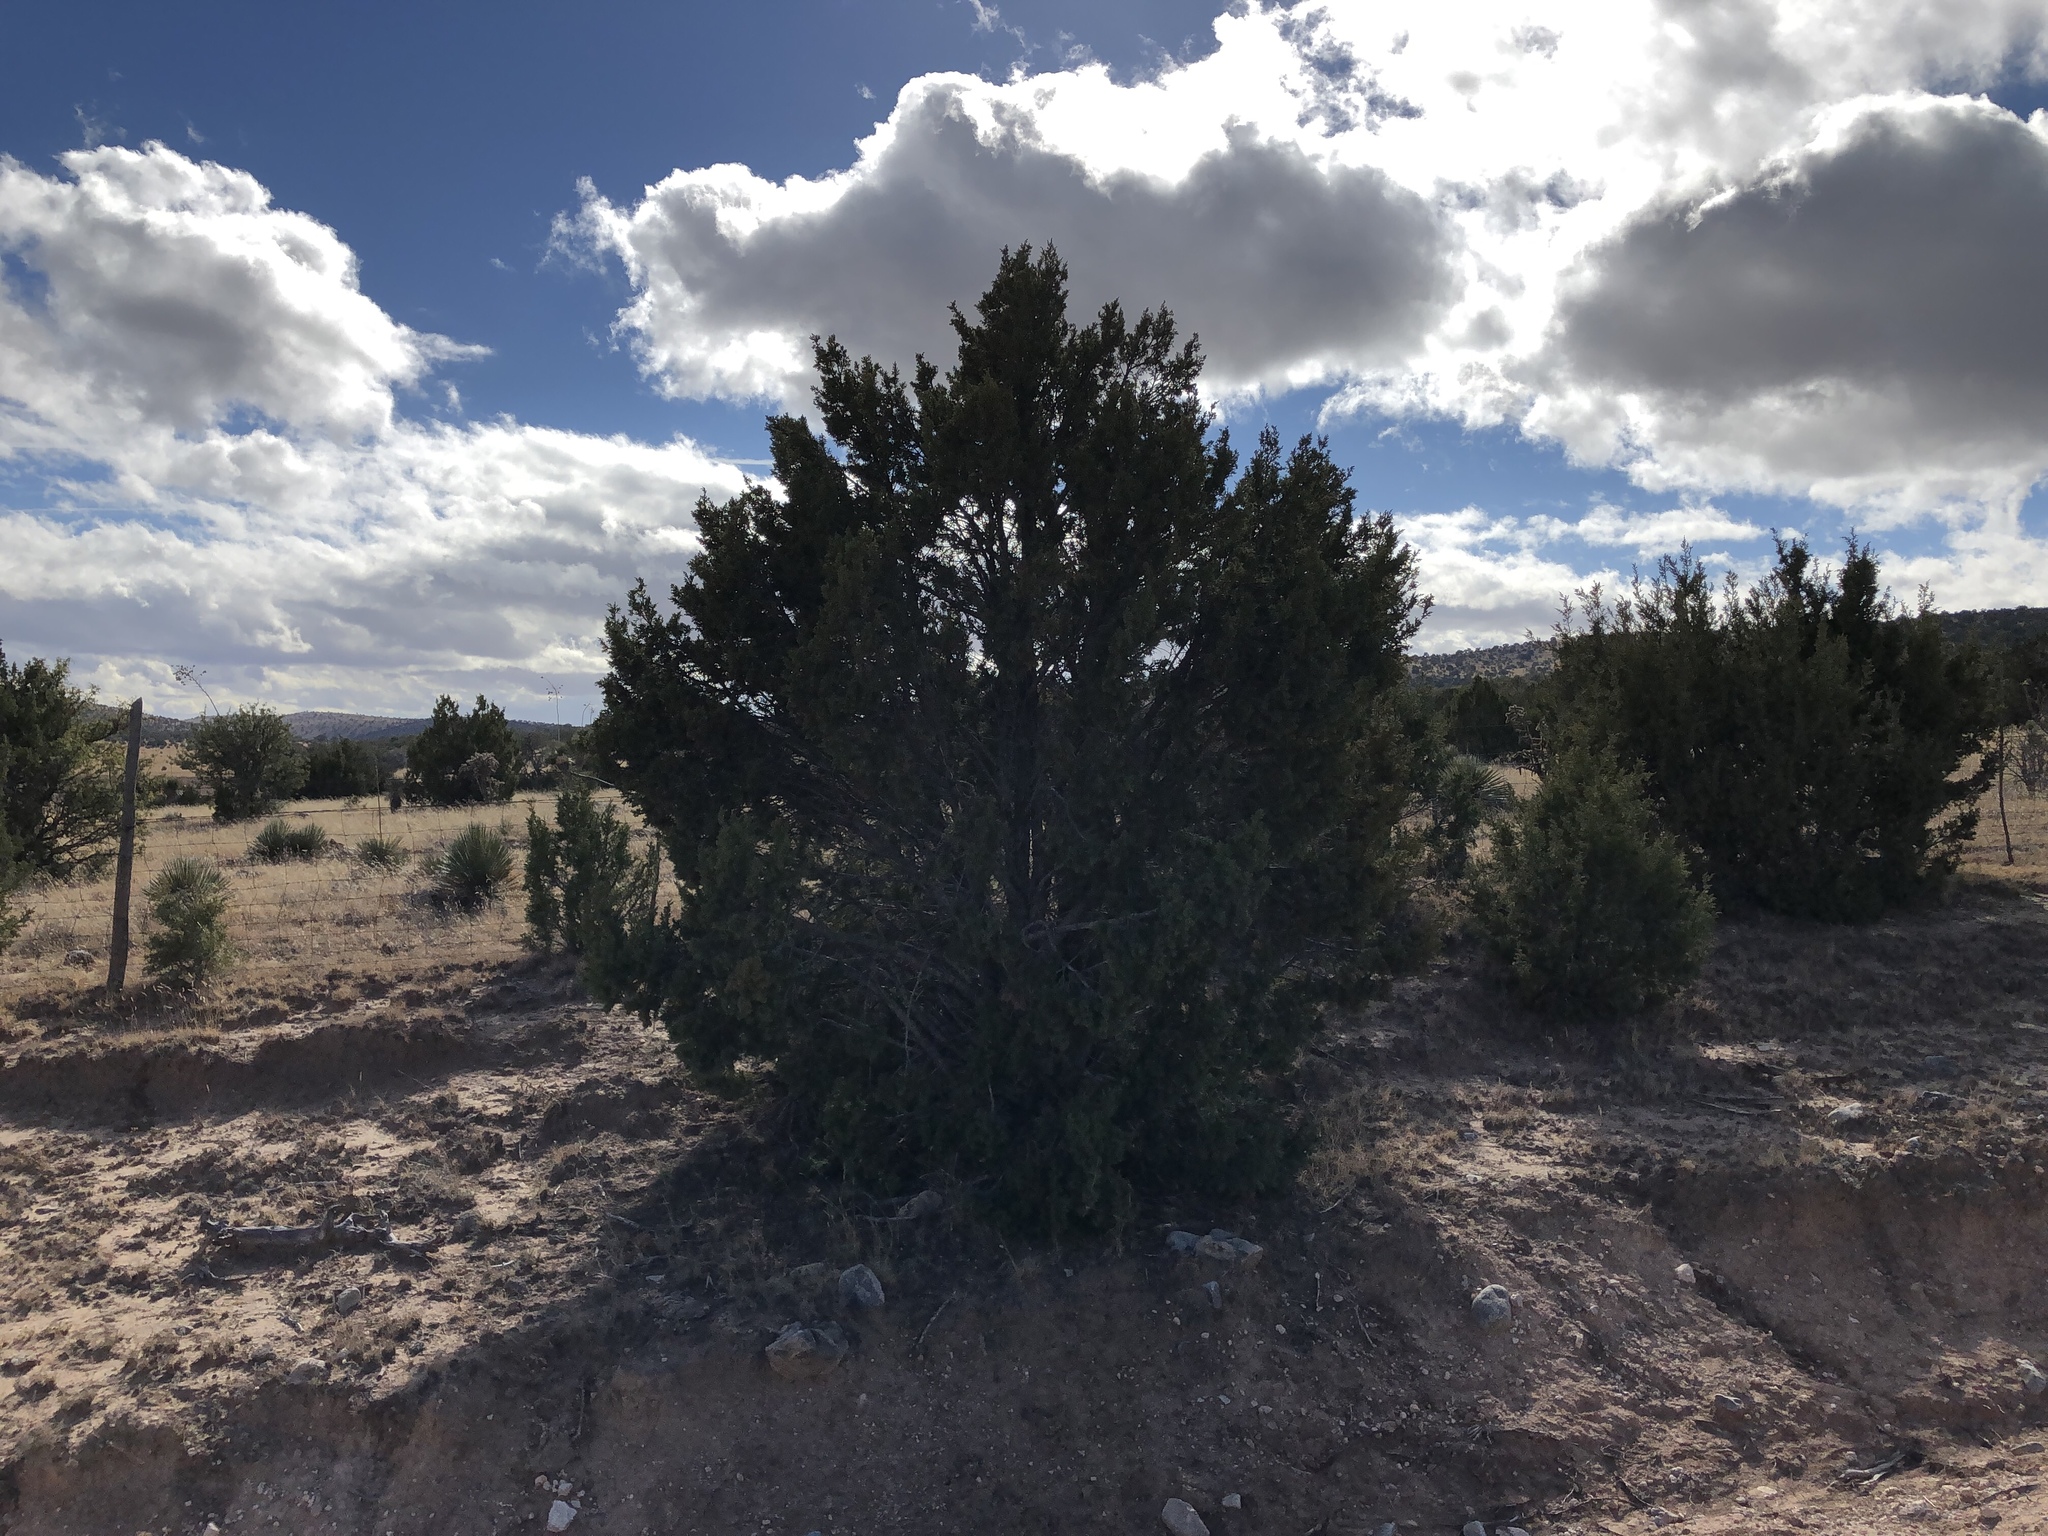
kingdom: Plantae
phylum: Tracheophyta
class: Pinopsida
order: Pinales
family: Cupressaceae
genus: Juniperus
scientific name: Juniperus monosperma
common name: One-seed juniper
